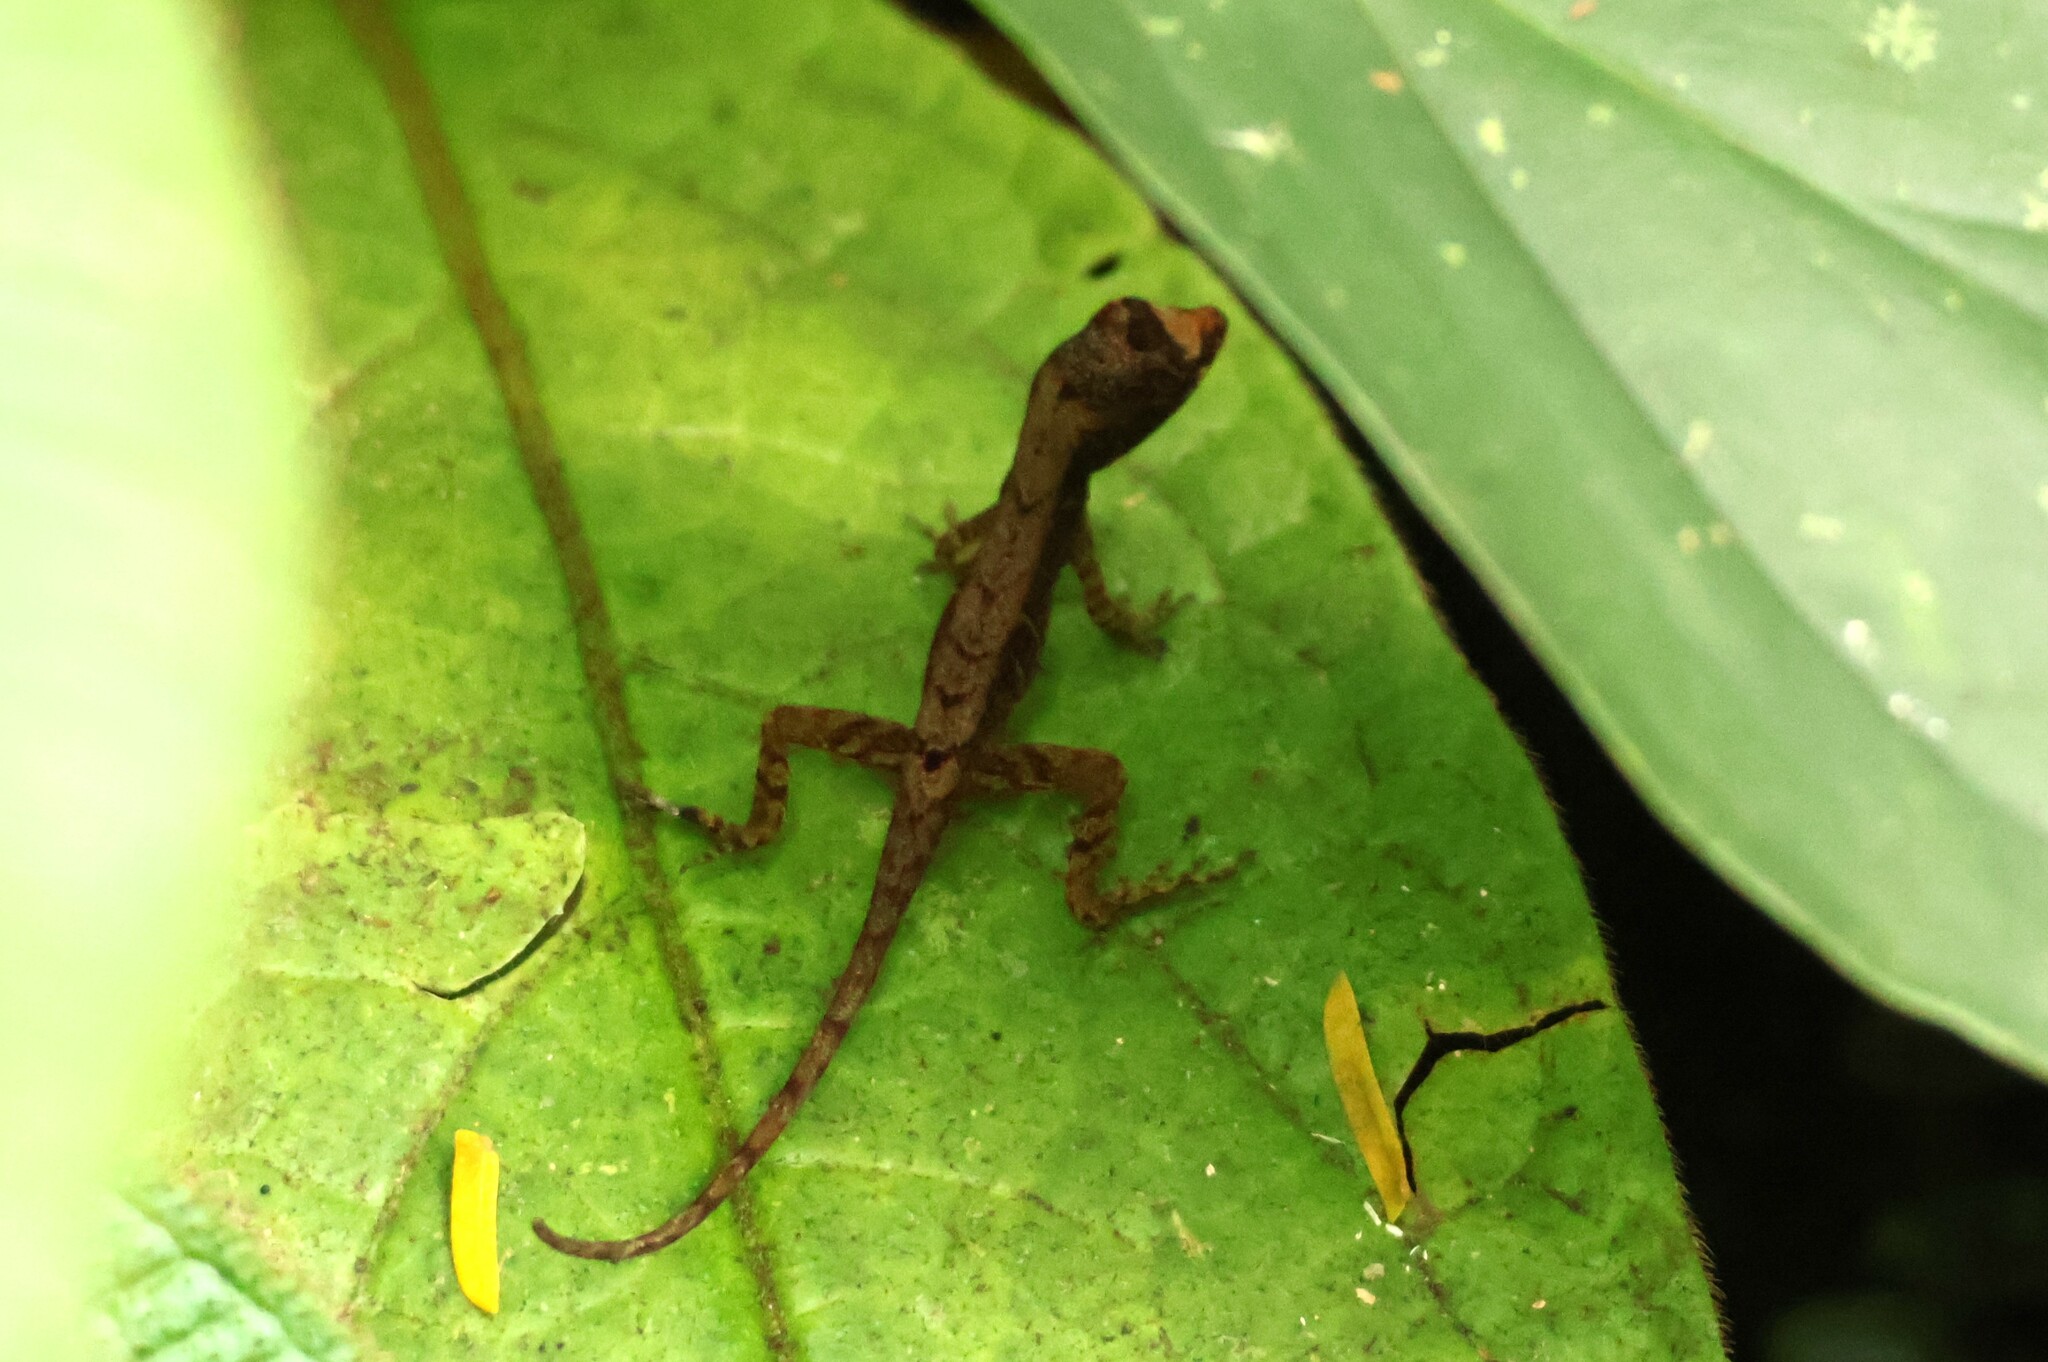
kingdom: Animalia
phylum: Chordata
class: Squamata
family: Dactyloidae
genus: Anolis
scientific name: Anolis humilis
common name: Humble anole
